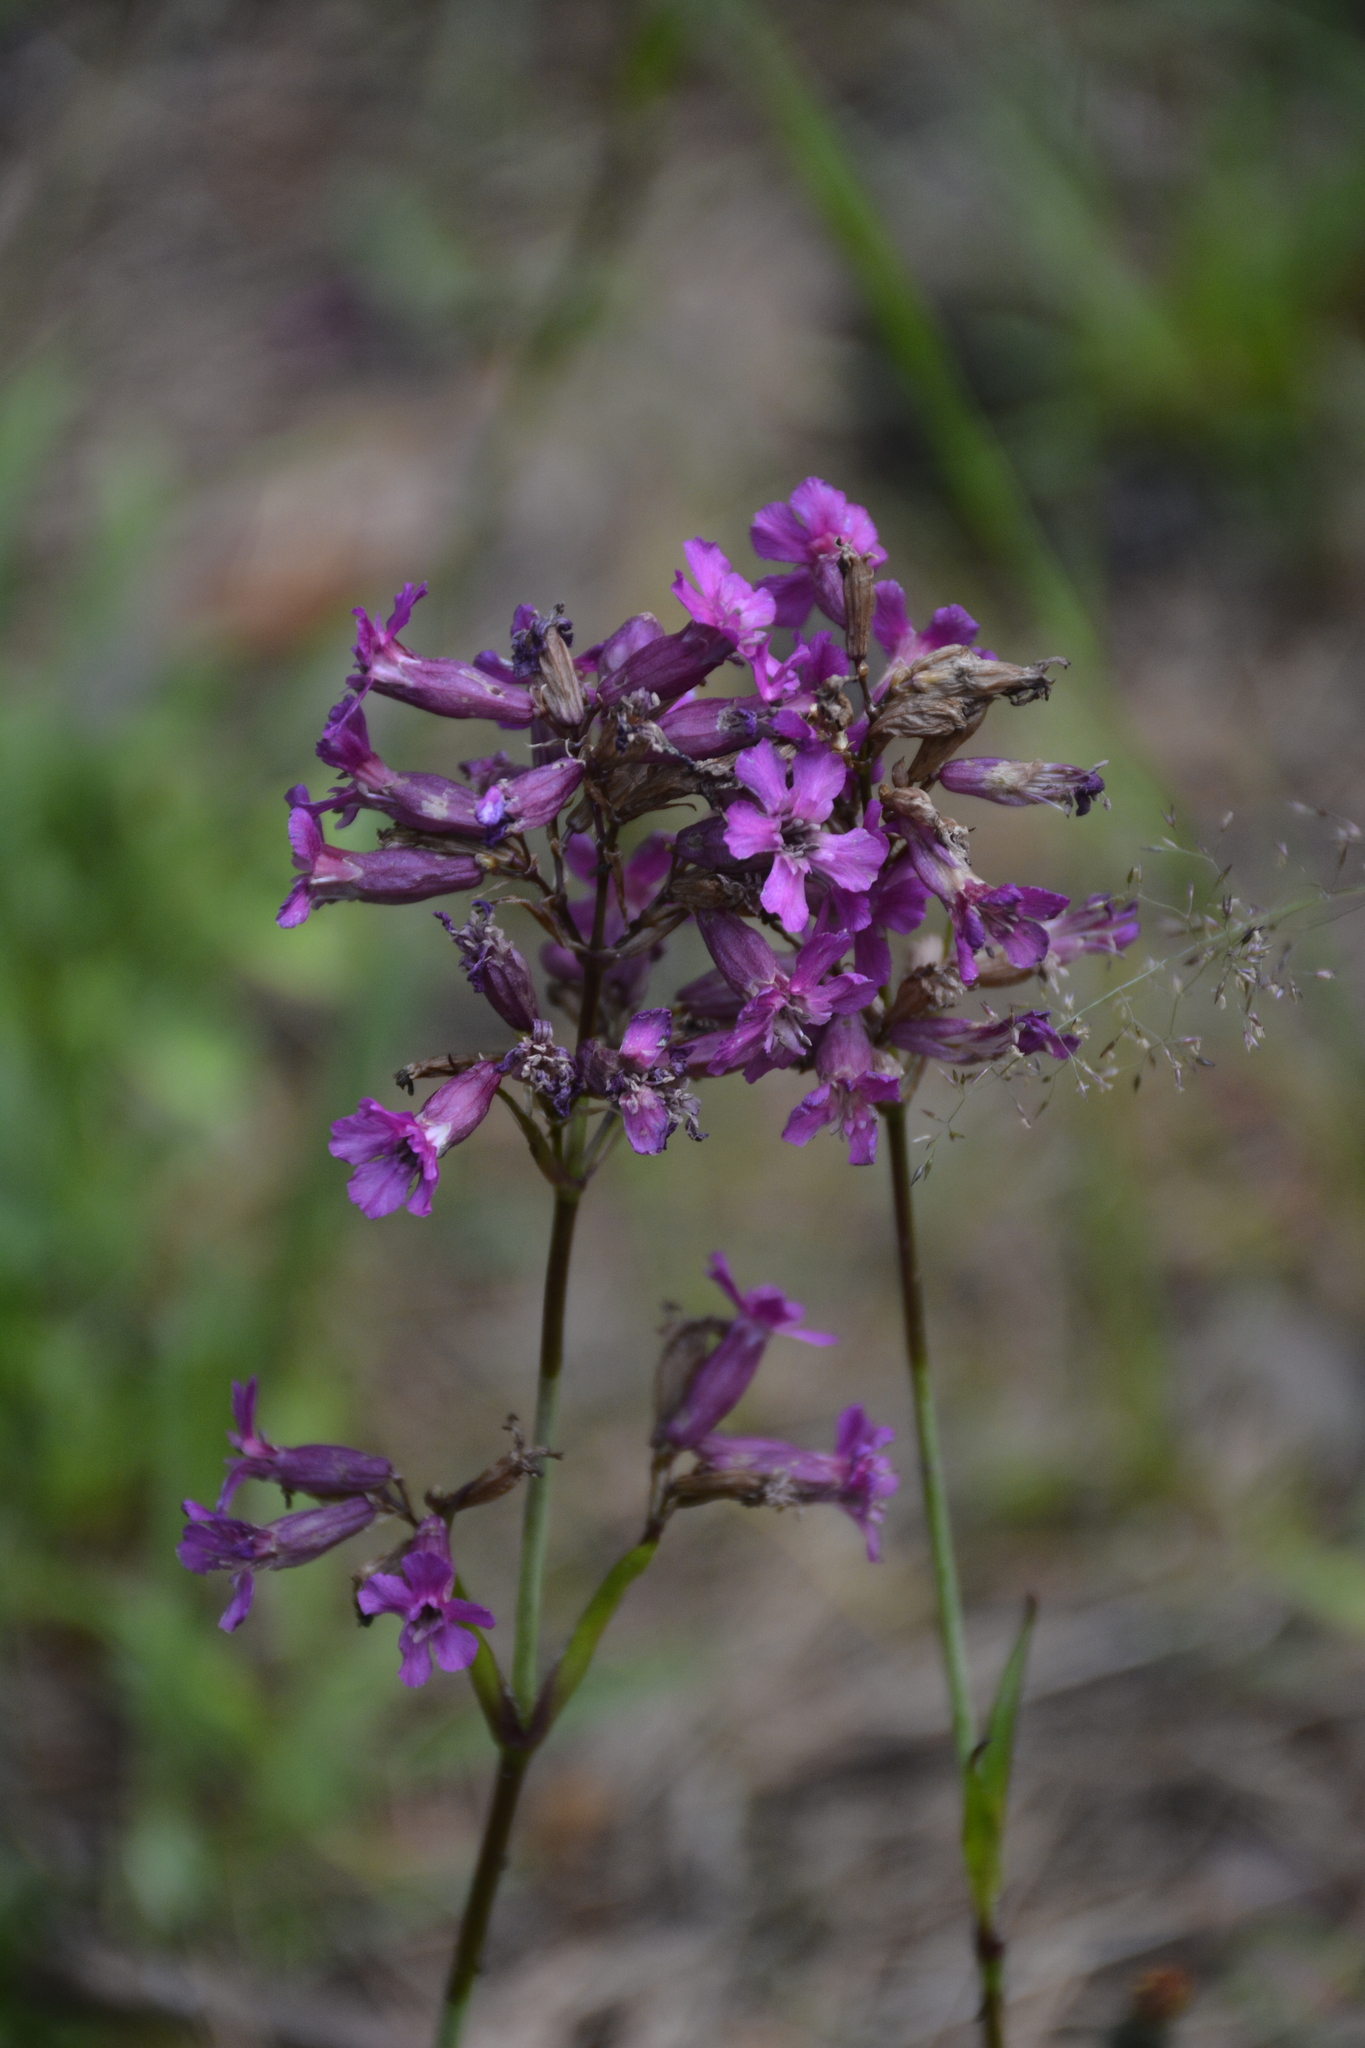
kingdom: Plantae
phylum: Tracheophyta
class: Magnoliopsida
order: Caryophyllales
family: Caryophyllaceae
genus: Viscaria
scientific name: Viscaria vulgaris
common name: Clammy campion
